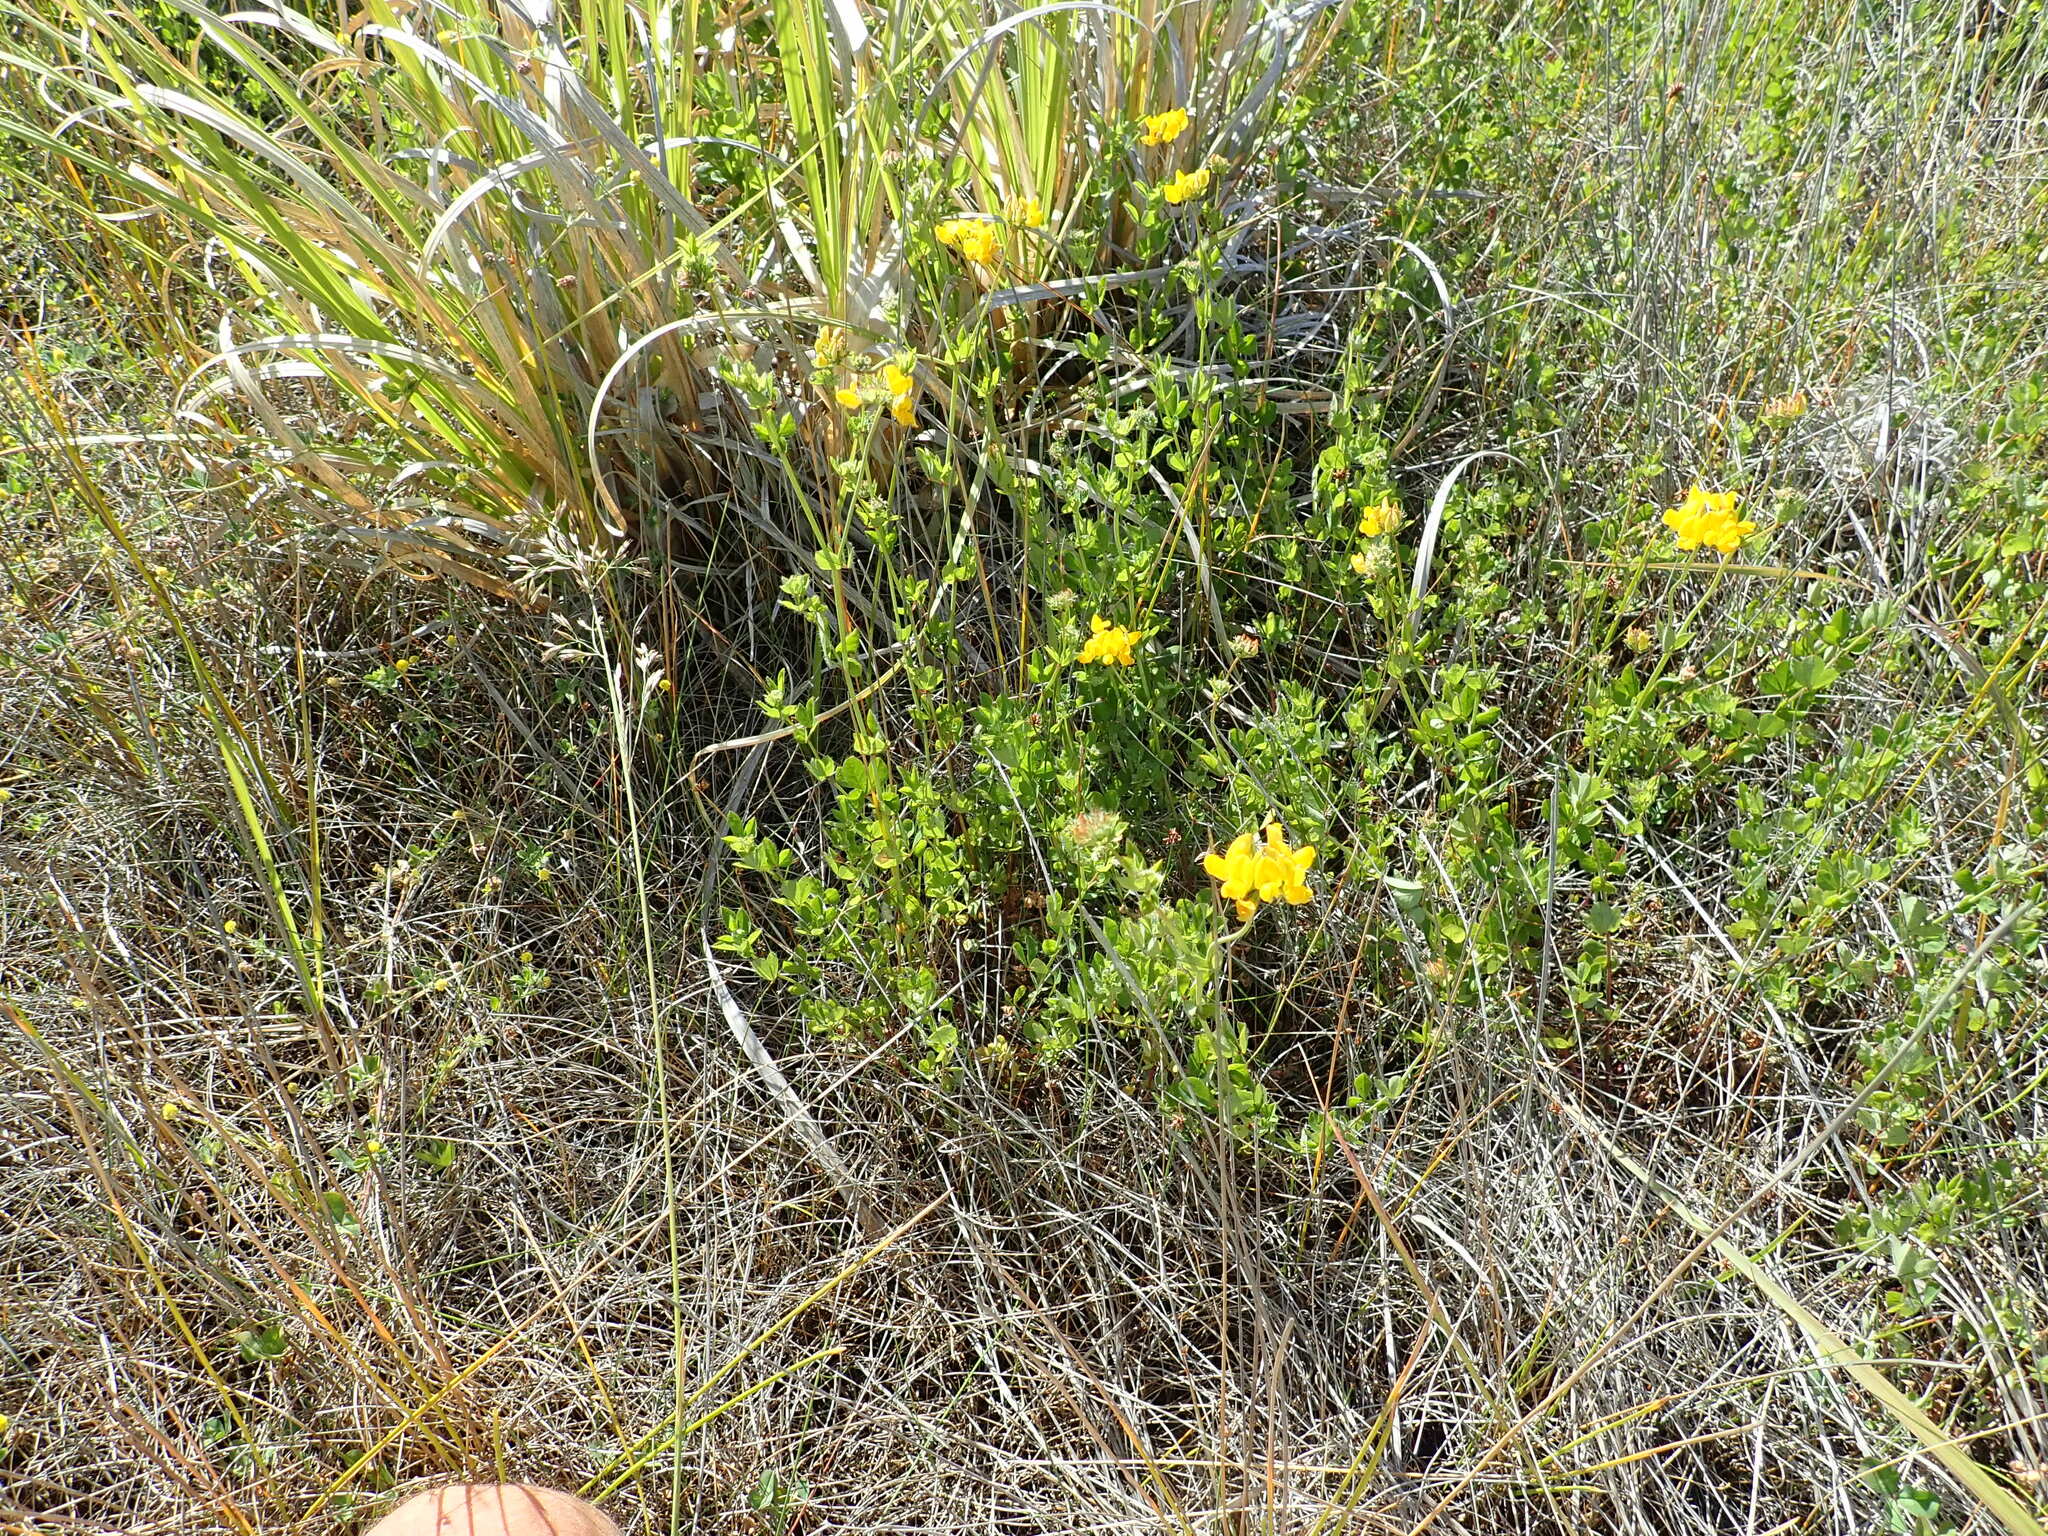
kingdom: Plantae
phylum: Tracheophyta
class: Magnoliopsida
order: Fabales
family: Fabaceae
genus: Lotus
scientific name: Lotus pedunculatus
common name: Greater birdsfoot-trefoil
